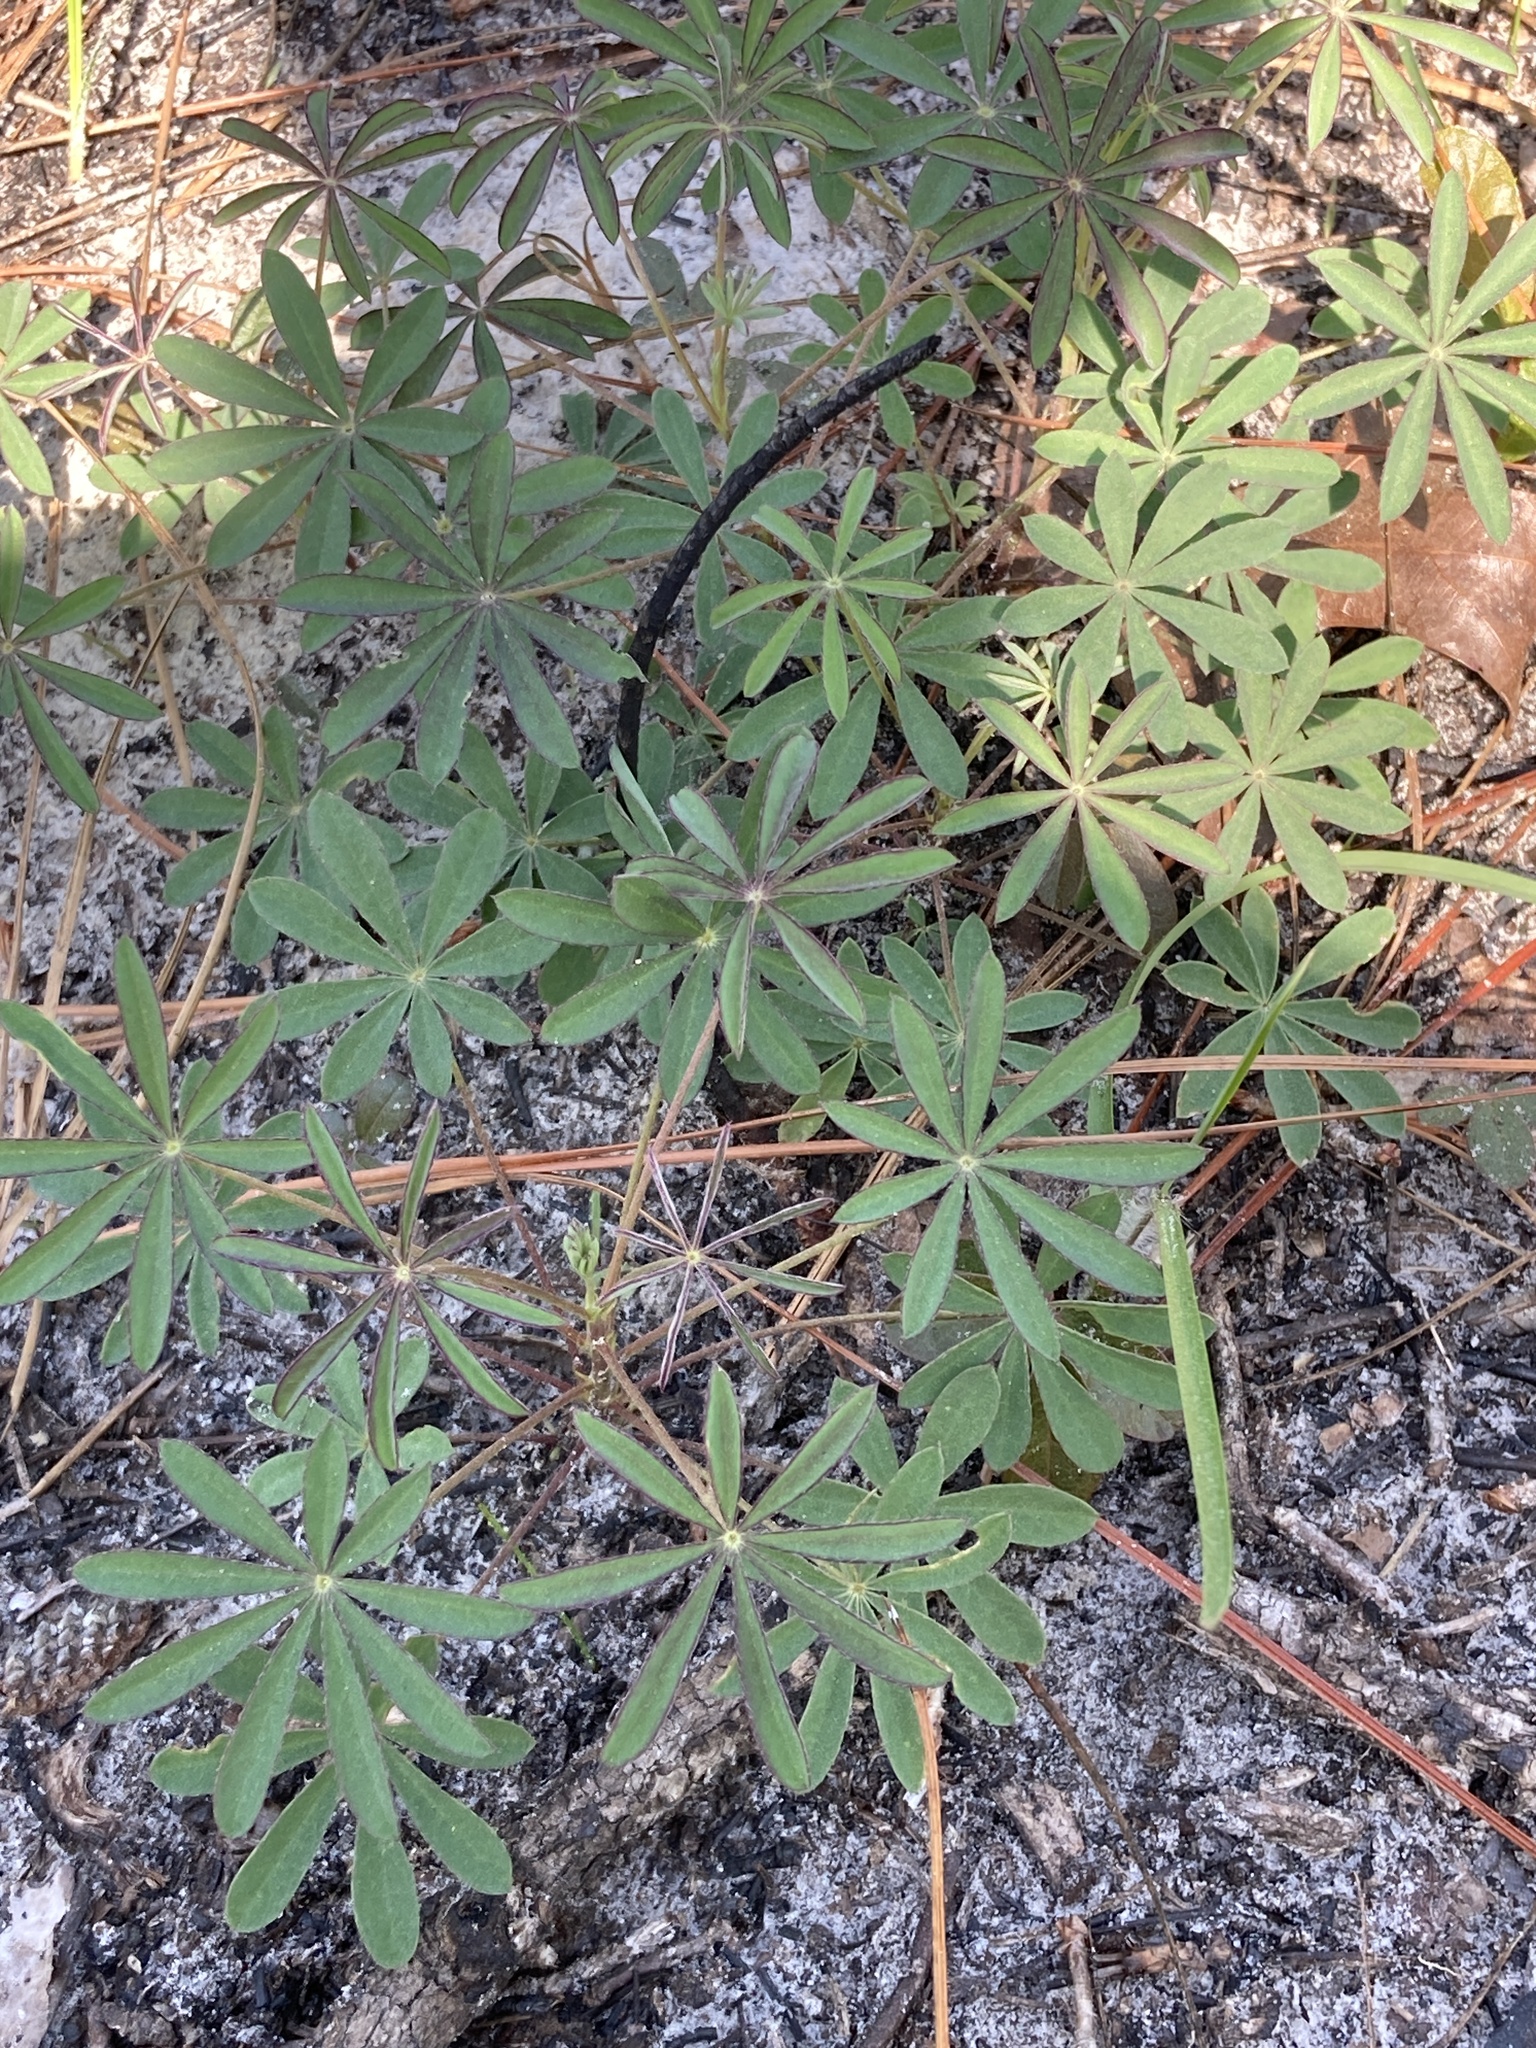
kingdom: Plantae
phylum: Tracheophyta
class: Magnoliopsida
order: Fabales
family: Fabaceae
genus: Lupinus
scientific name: Lupinus perennis
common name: Sundial lupine
